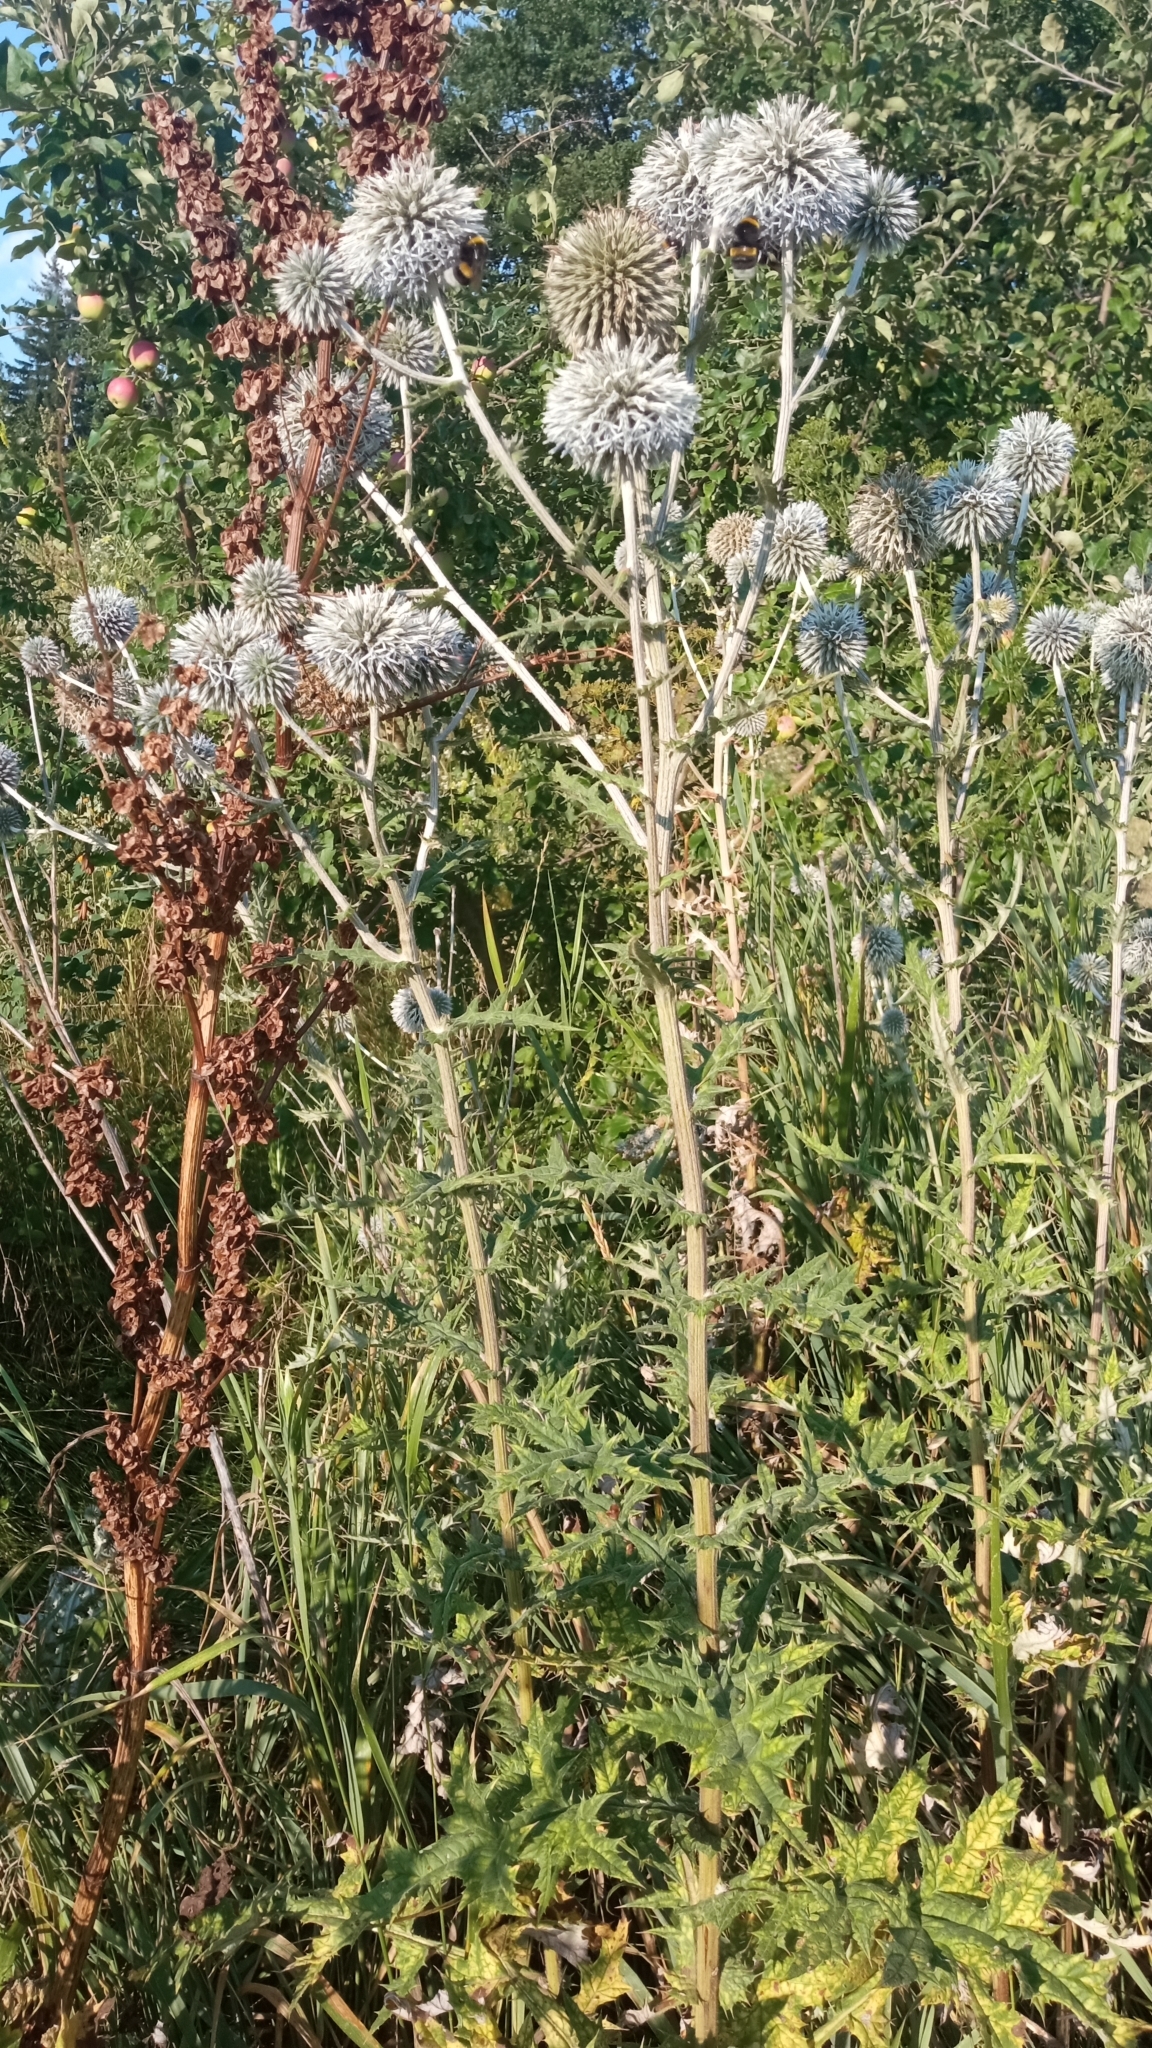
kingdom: Plantae
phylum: Tracheophyta
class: Magnoliopsida
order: Asterales
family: Asteraceae
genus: Echinops
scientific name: Echinops sphaerocephalus
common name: Glandular globe-thistle
